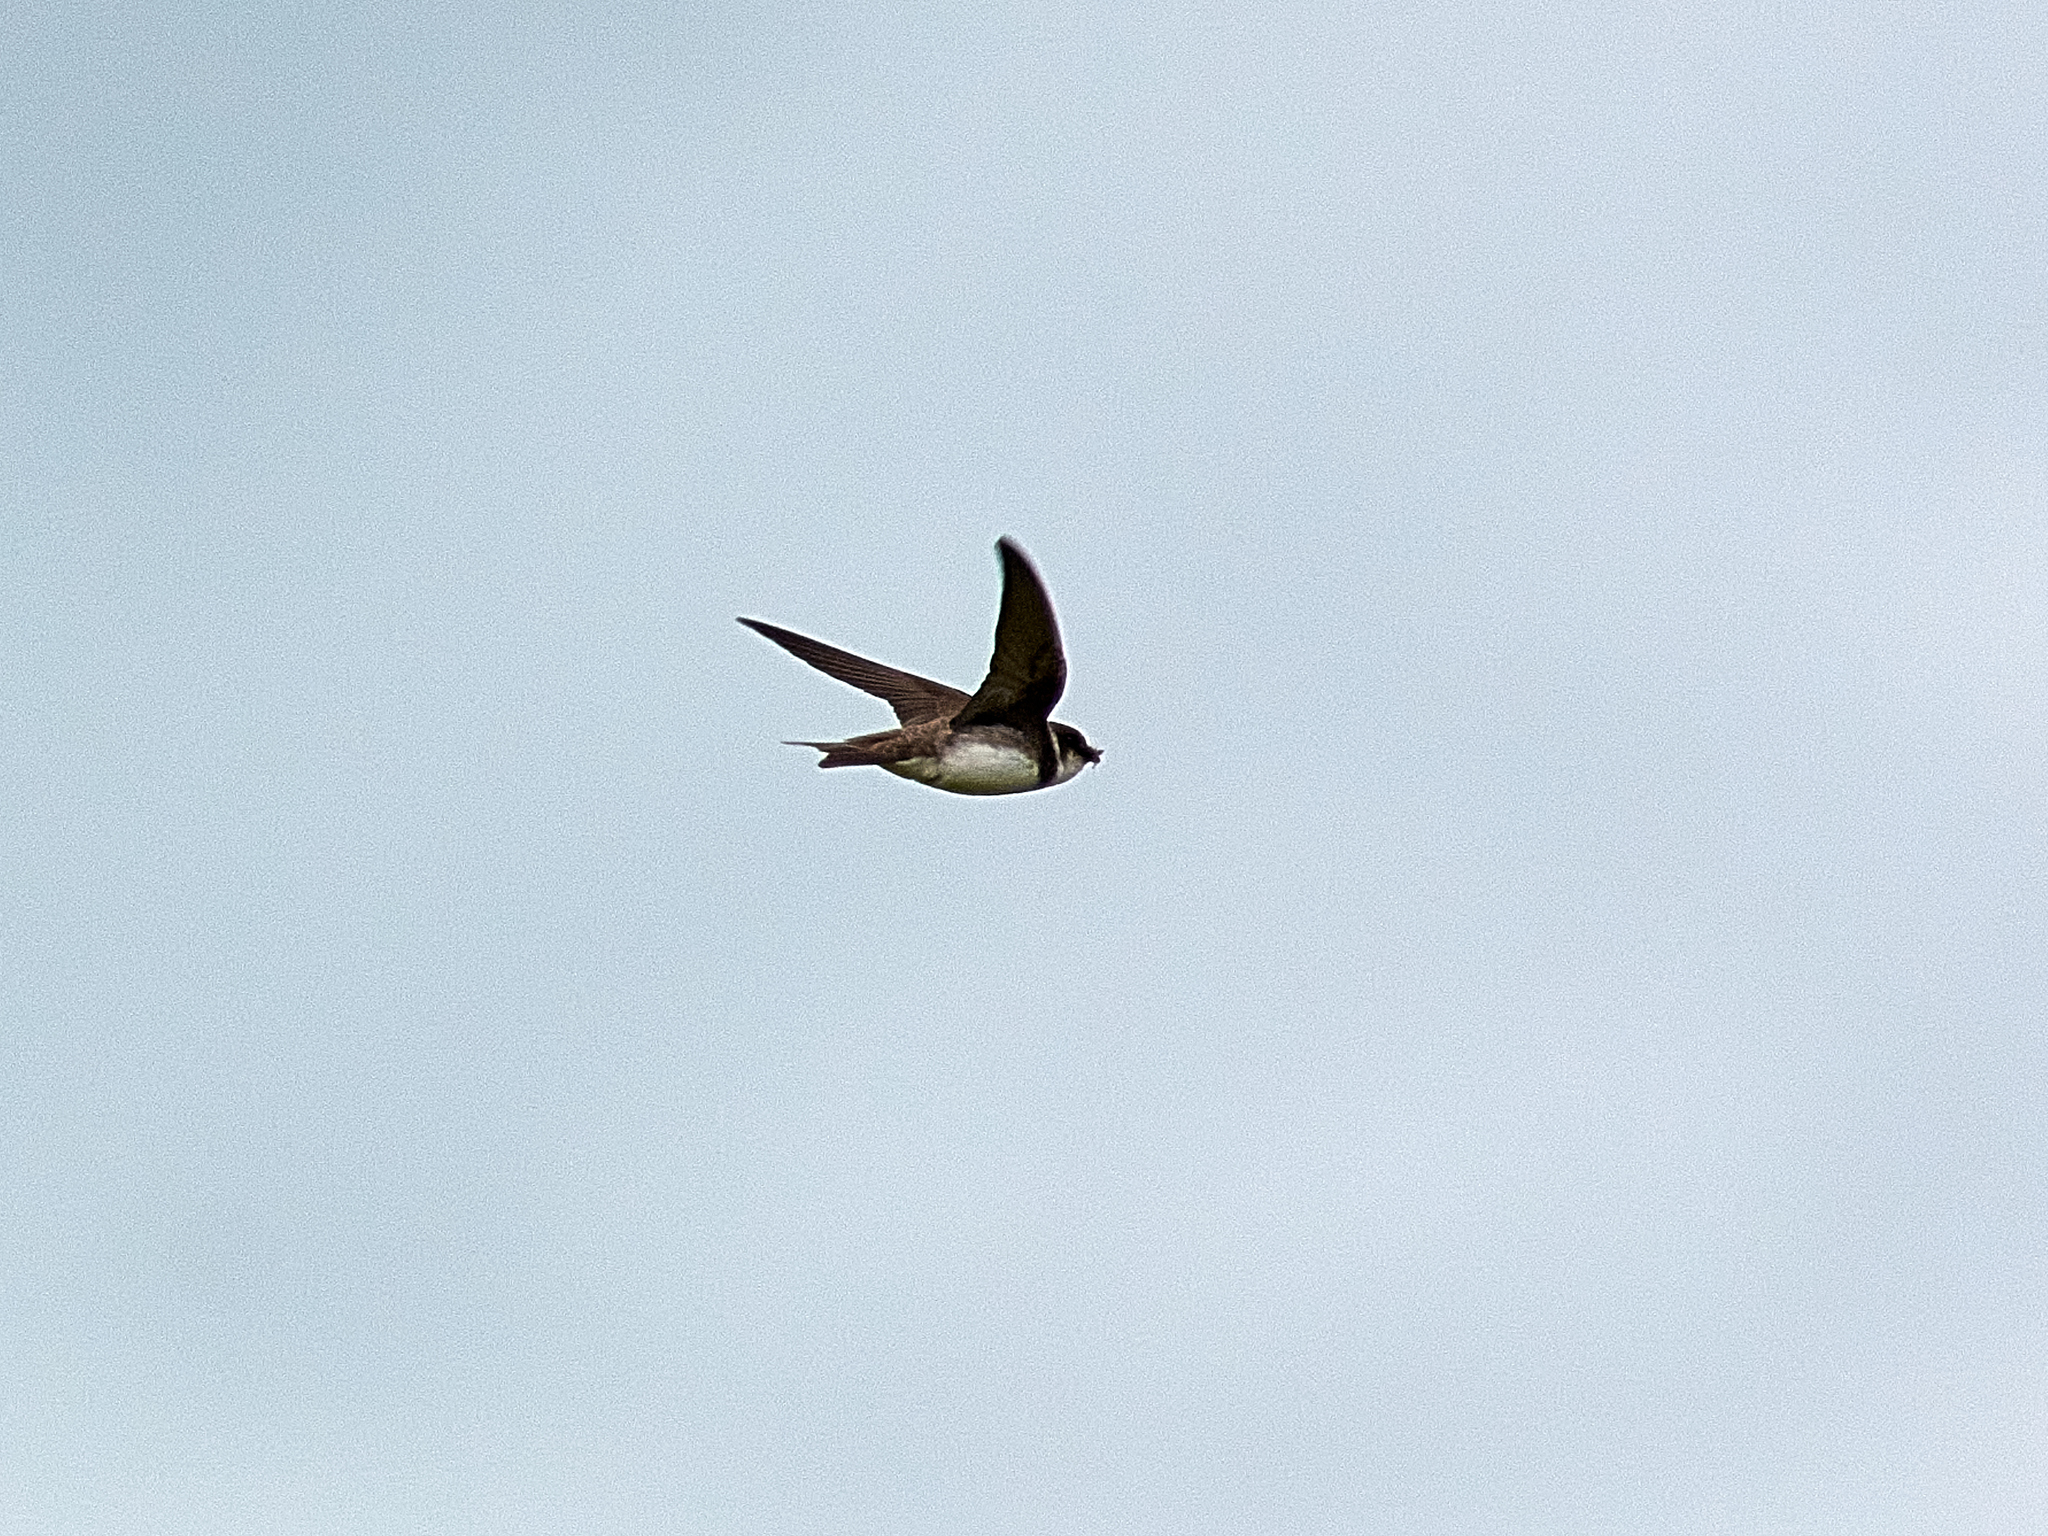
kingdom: Animalia
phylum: Chordata
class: Aves
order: Passeriformes
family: Hirundinidae
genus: Riparia
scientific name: Riparia riparia
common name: Sand martin
